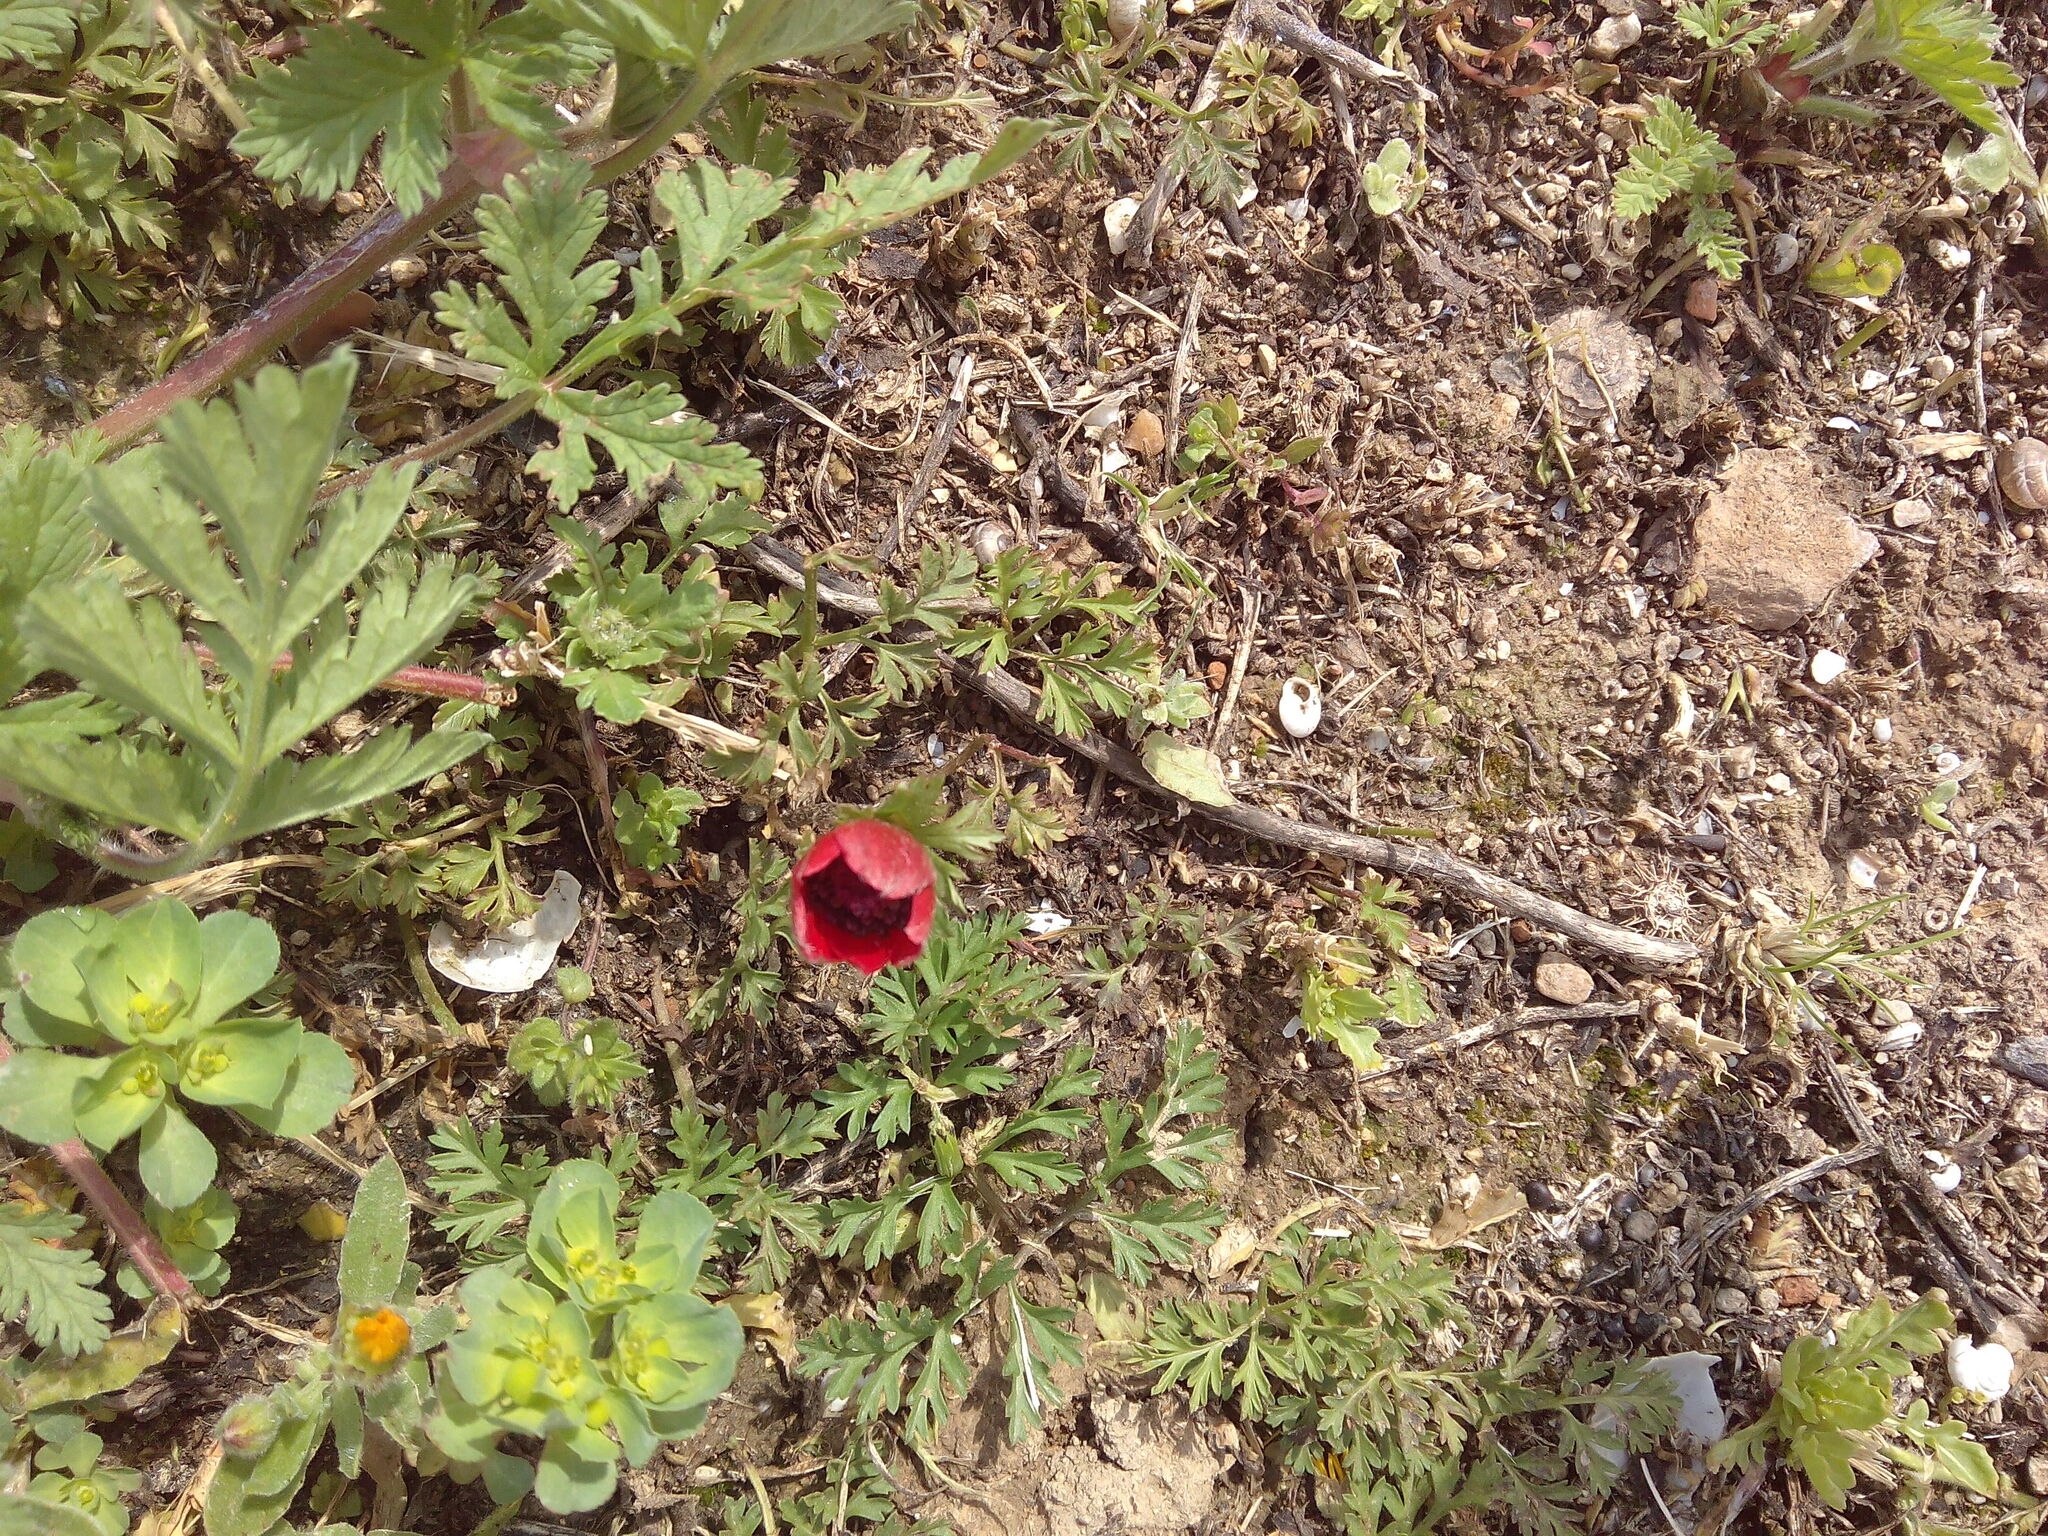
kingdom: Plantae
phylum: Tracheophyta
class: Magnoliopsida
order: Ranunculales
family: Ranunculaceae
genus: Anemone
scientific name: Anemone coronaria
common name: Poppy anemone
